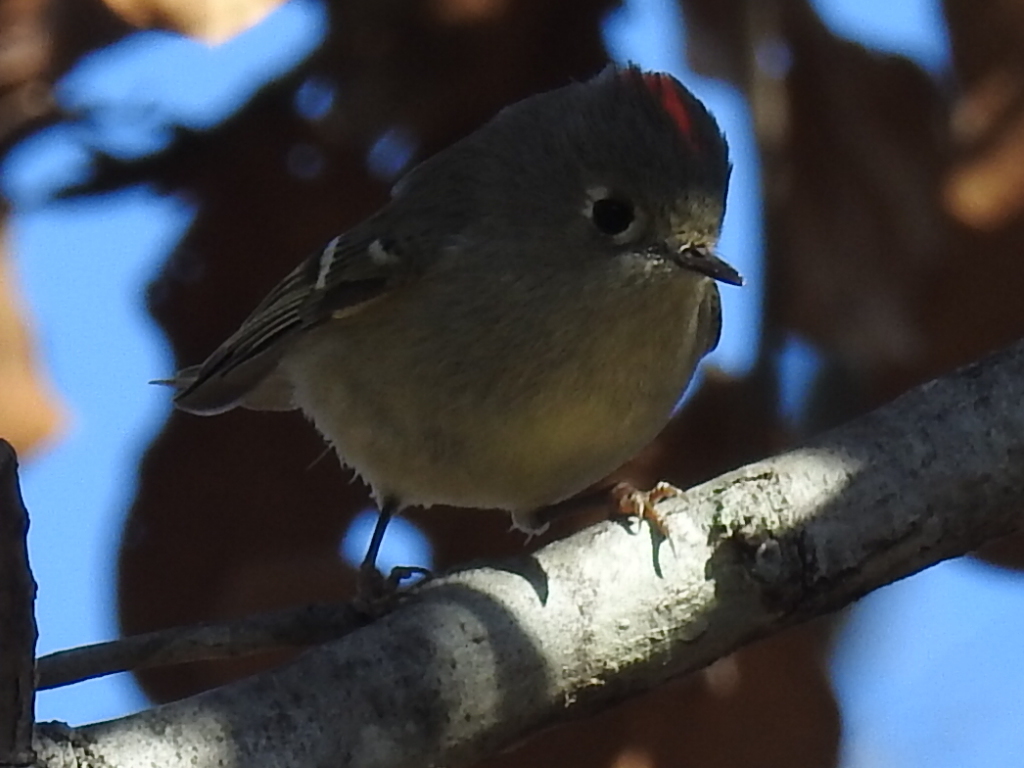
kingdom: Animalia
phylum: Chordata
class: Aves
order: Passeriformes
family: Regulidae
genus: Regulus
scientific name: Regulus calendula
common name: Ruby-crowned kinglet
